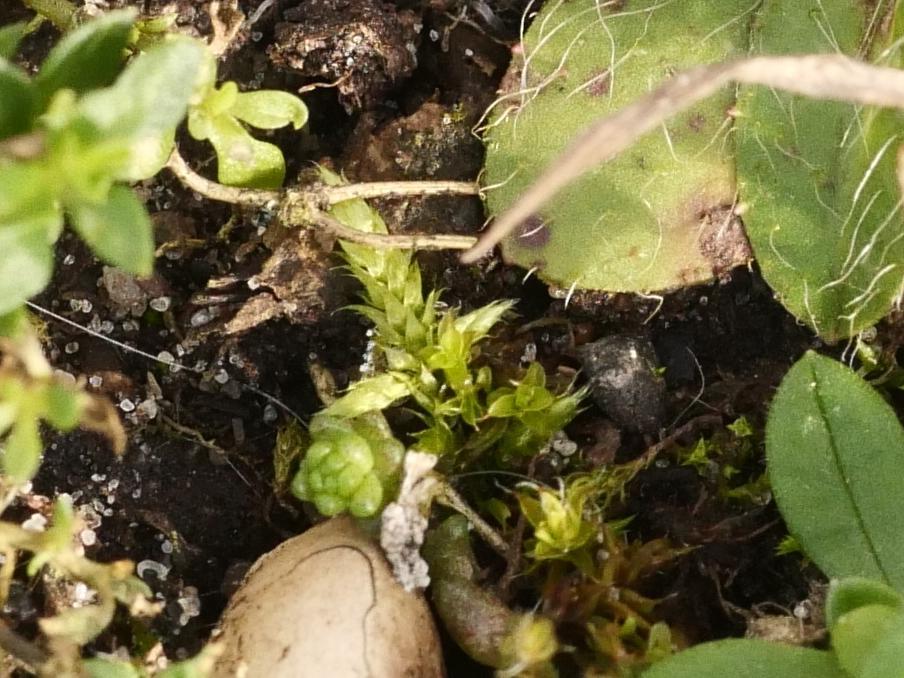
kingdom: Plantae
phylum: Bryophyta
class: Bryopsida
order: Hypnales
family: Hypnaceae
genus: Hypnum
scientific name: Hypnum cupressiforme
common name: Cypress-leaved plait-moss
